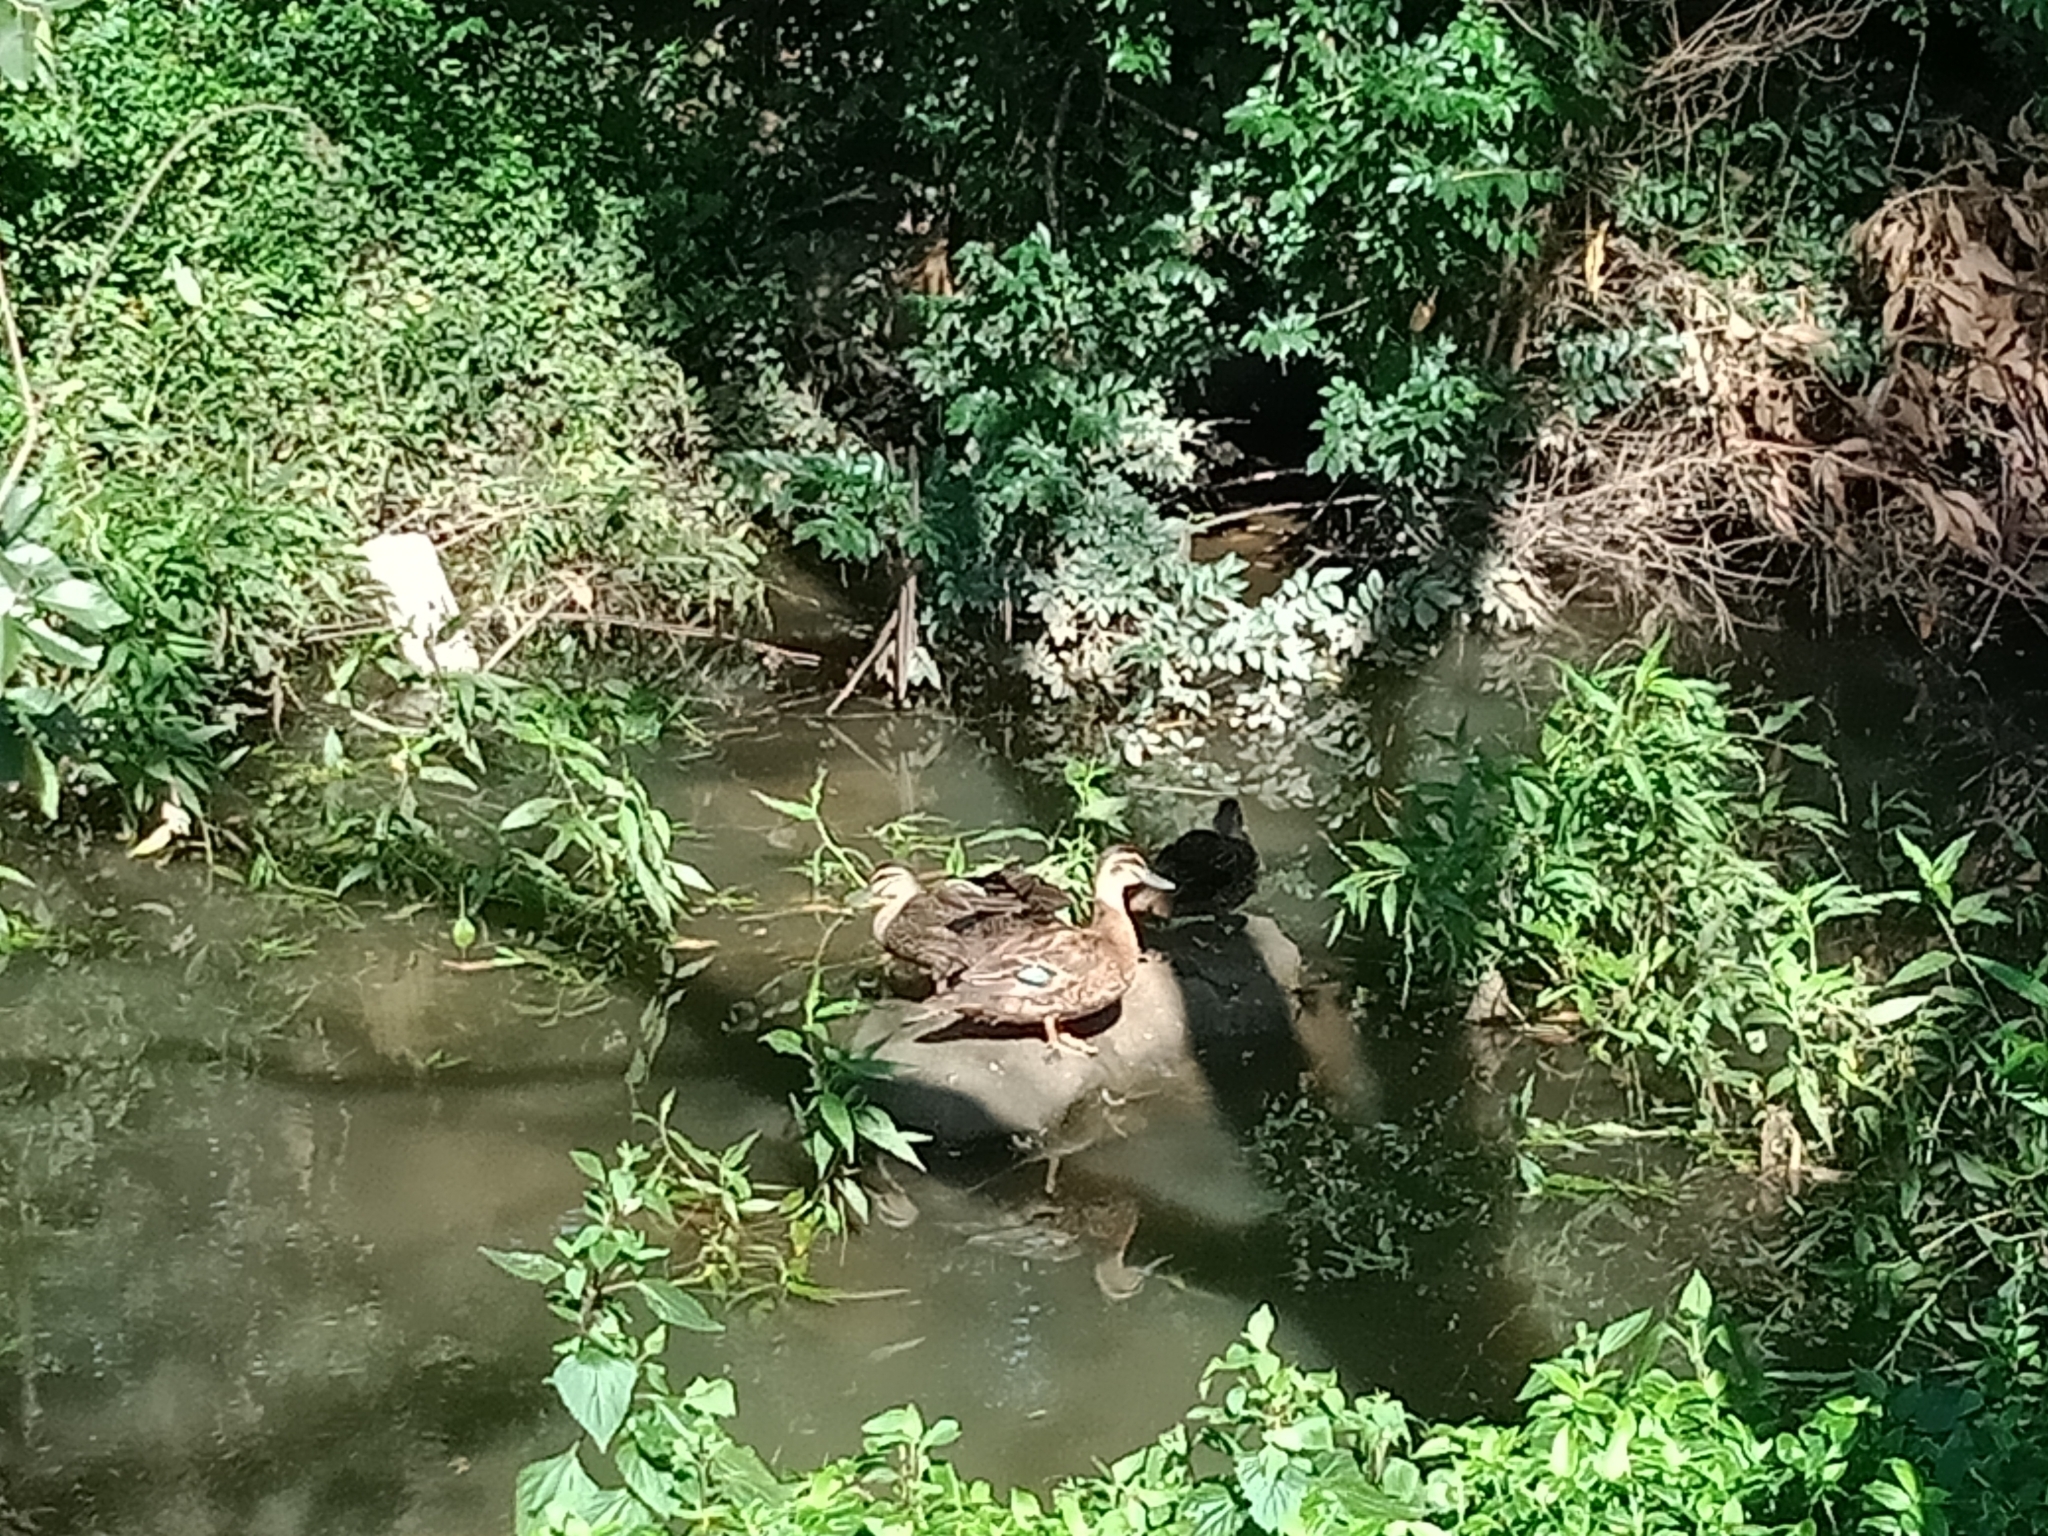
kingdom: Animalia
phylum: Chordata
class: Aves
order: Anseriformes
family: Anatidae
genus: Anas
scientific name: Anas superciliosa
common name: Pacific black duck
